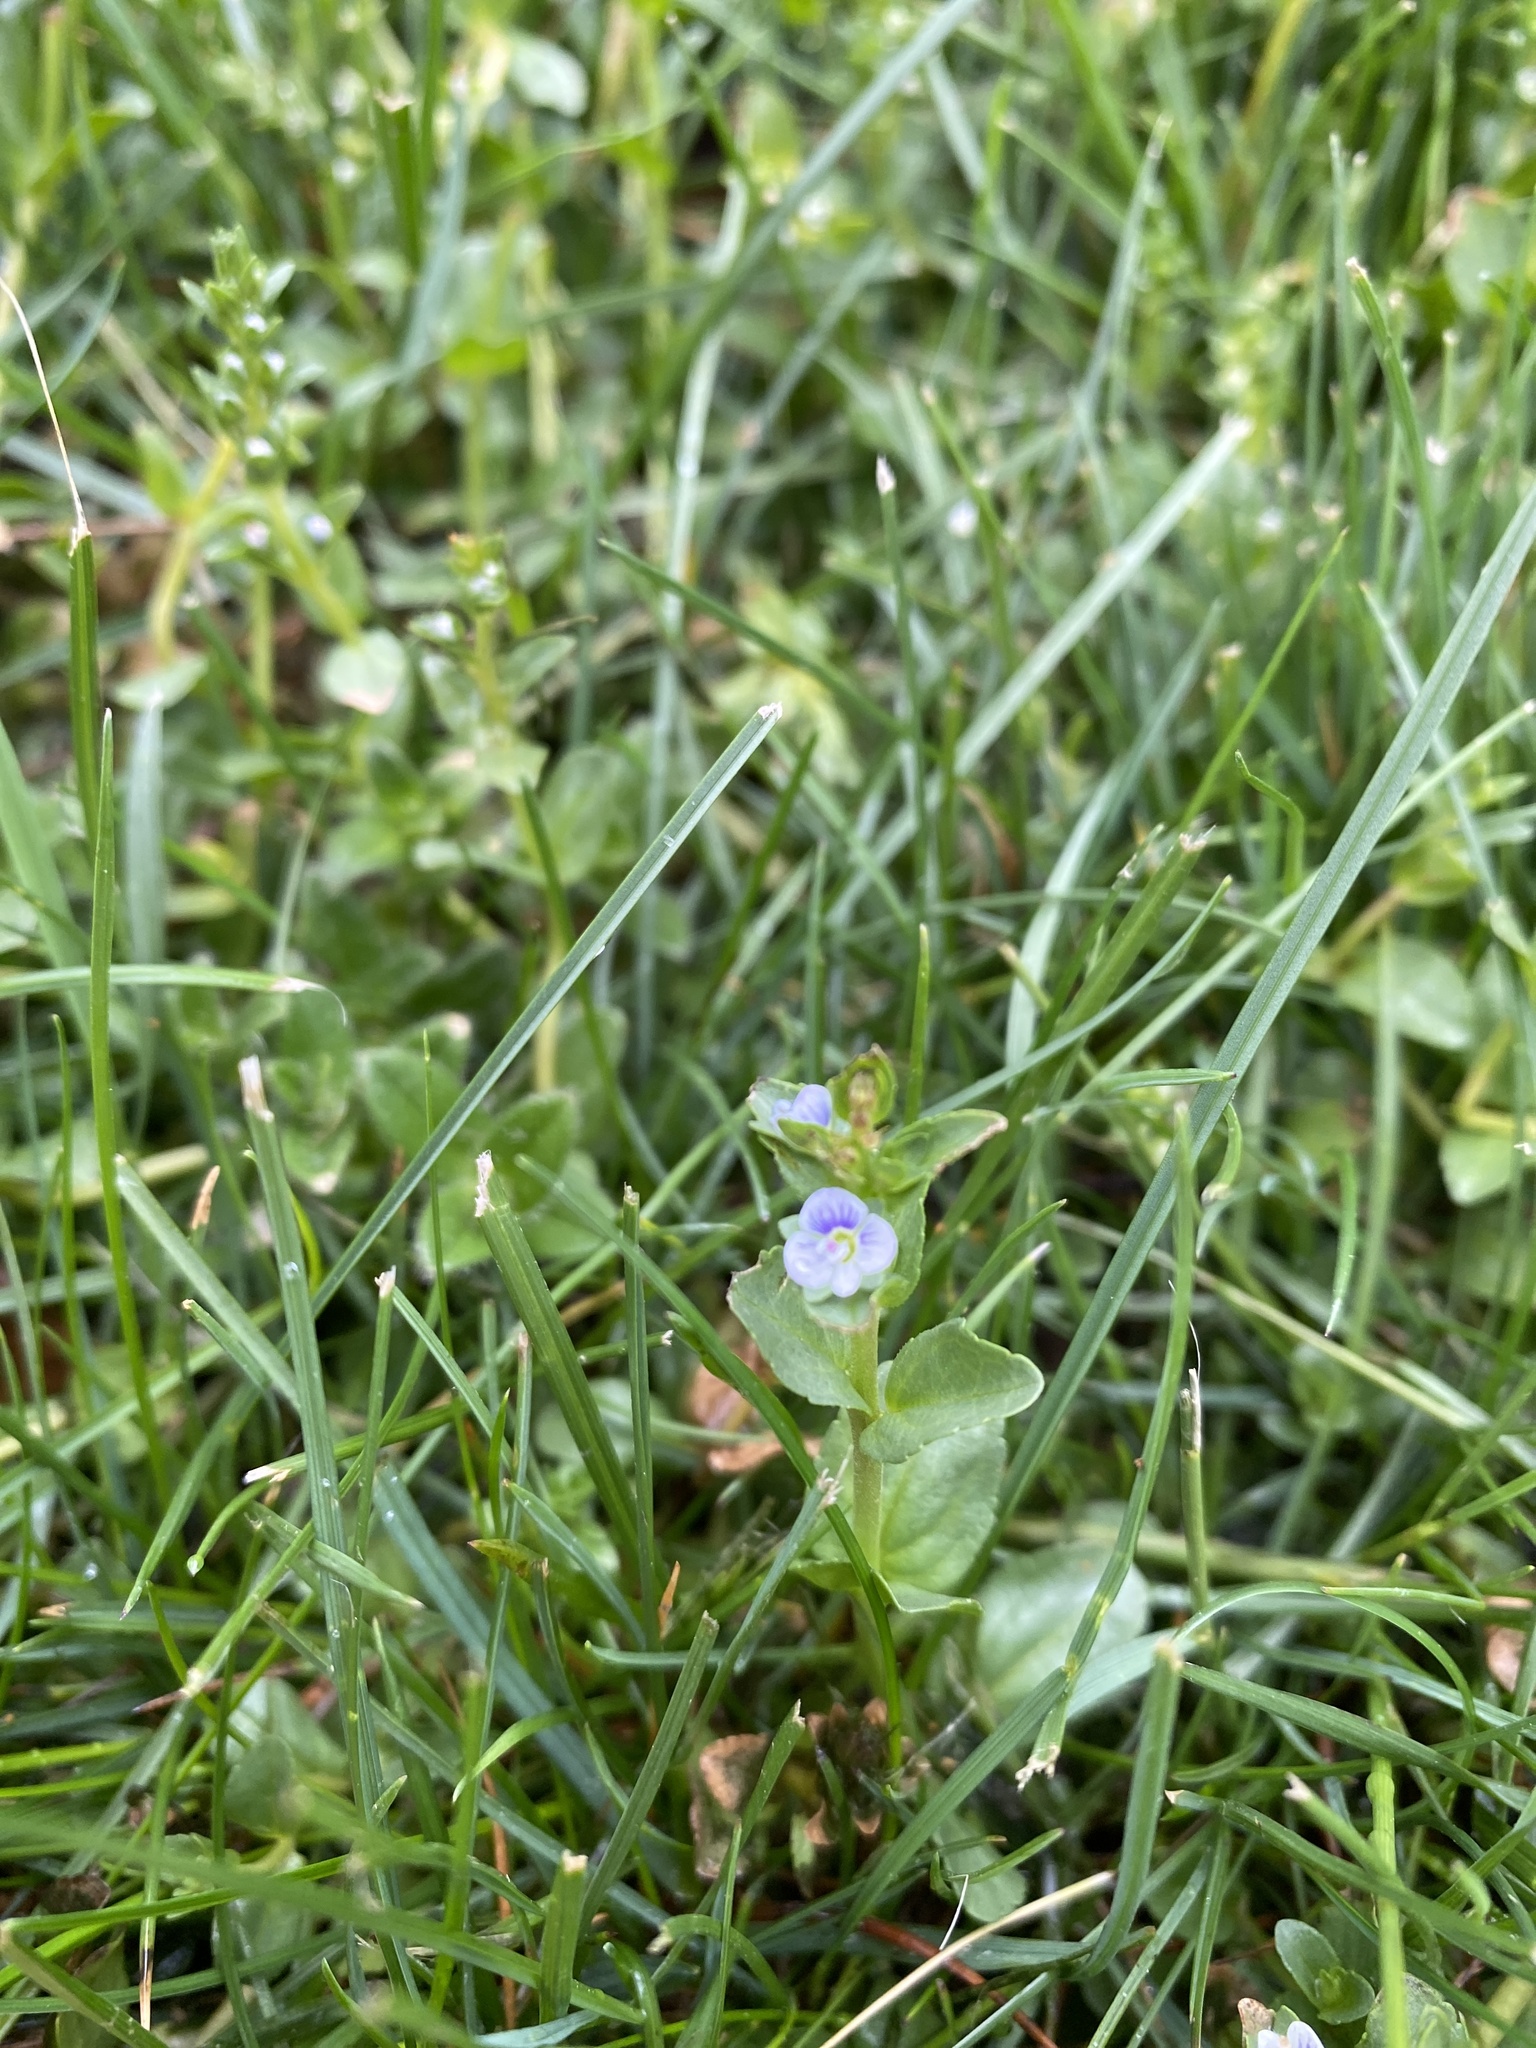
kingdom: Plantae
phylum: Tracheophyta
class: Magnoliopsida
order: Lamiales
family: Plantaginaceae
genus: Veronica
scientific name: Veronica serpyllifolia
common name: Thyme-leaved speedwell
